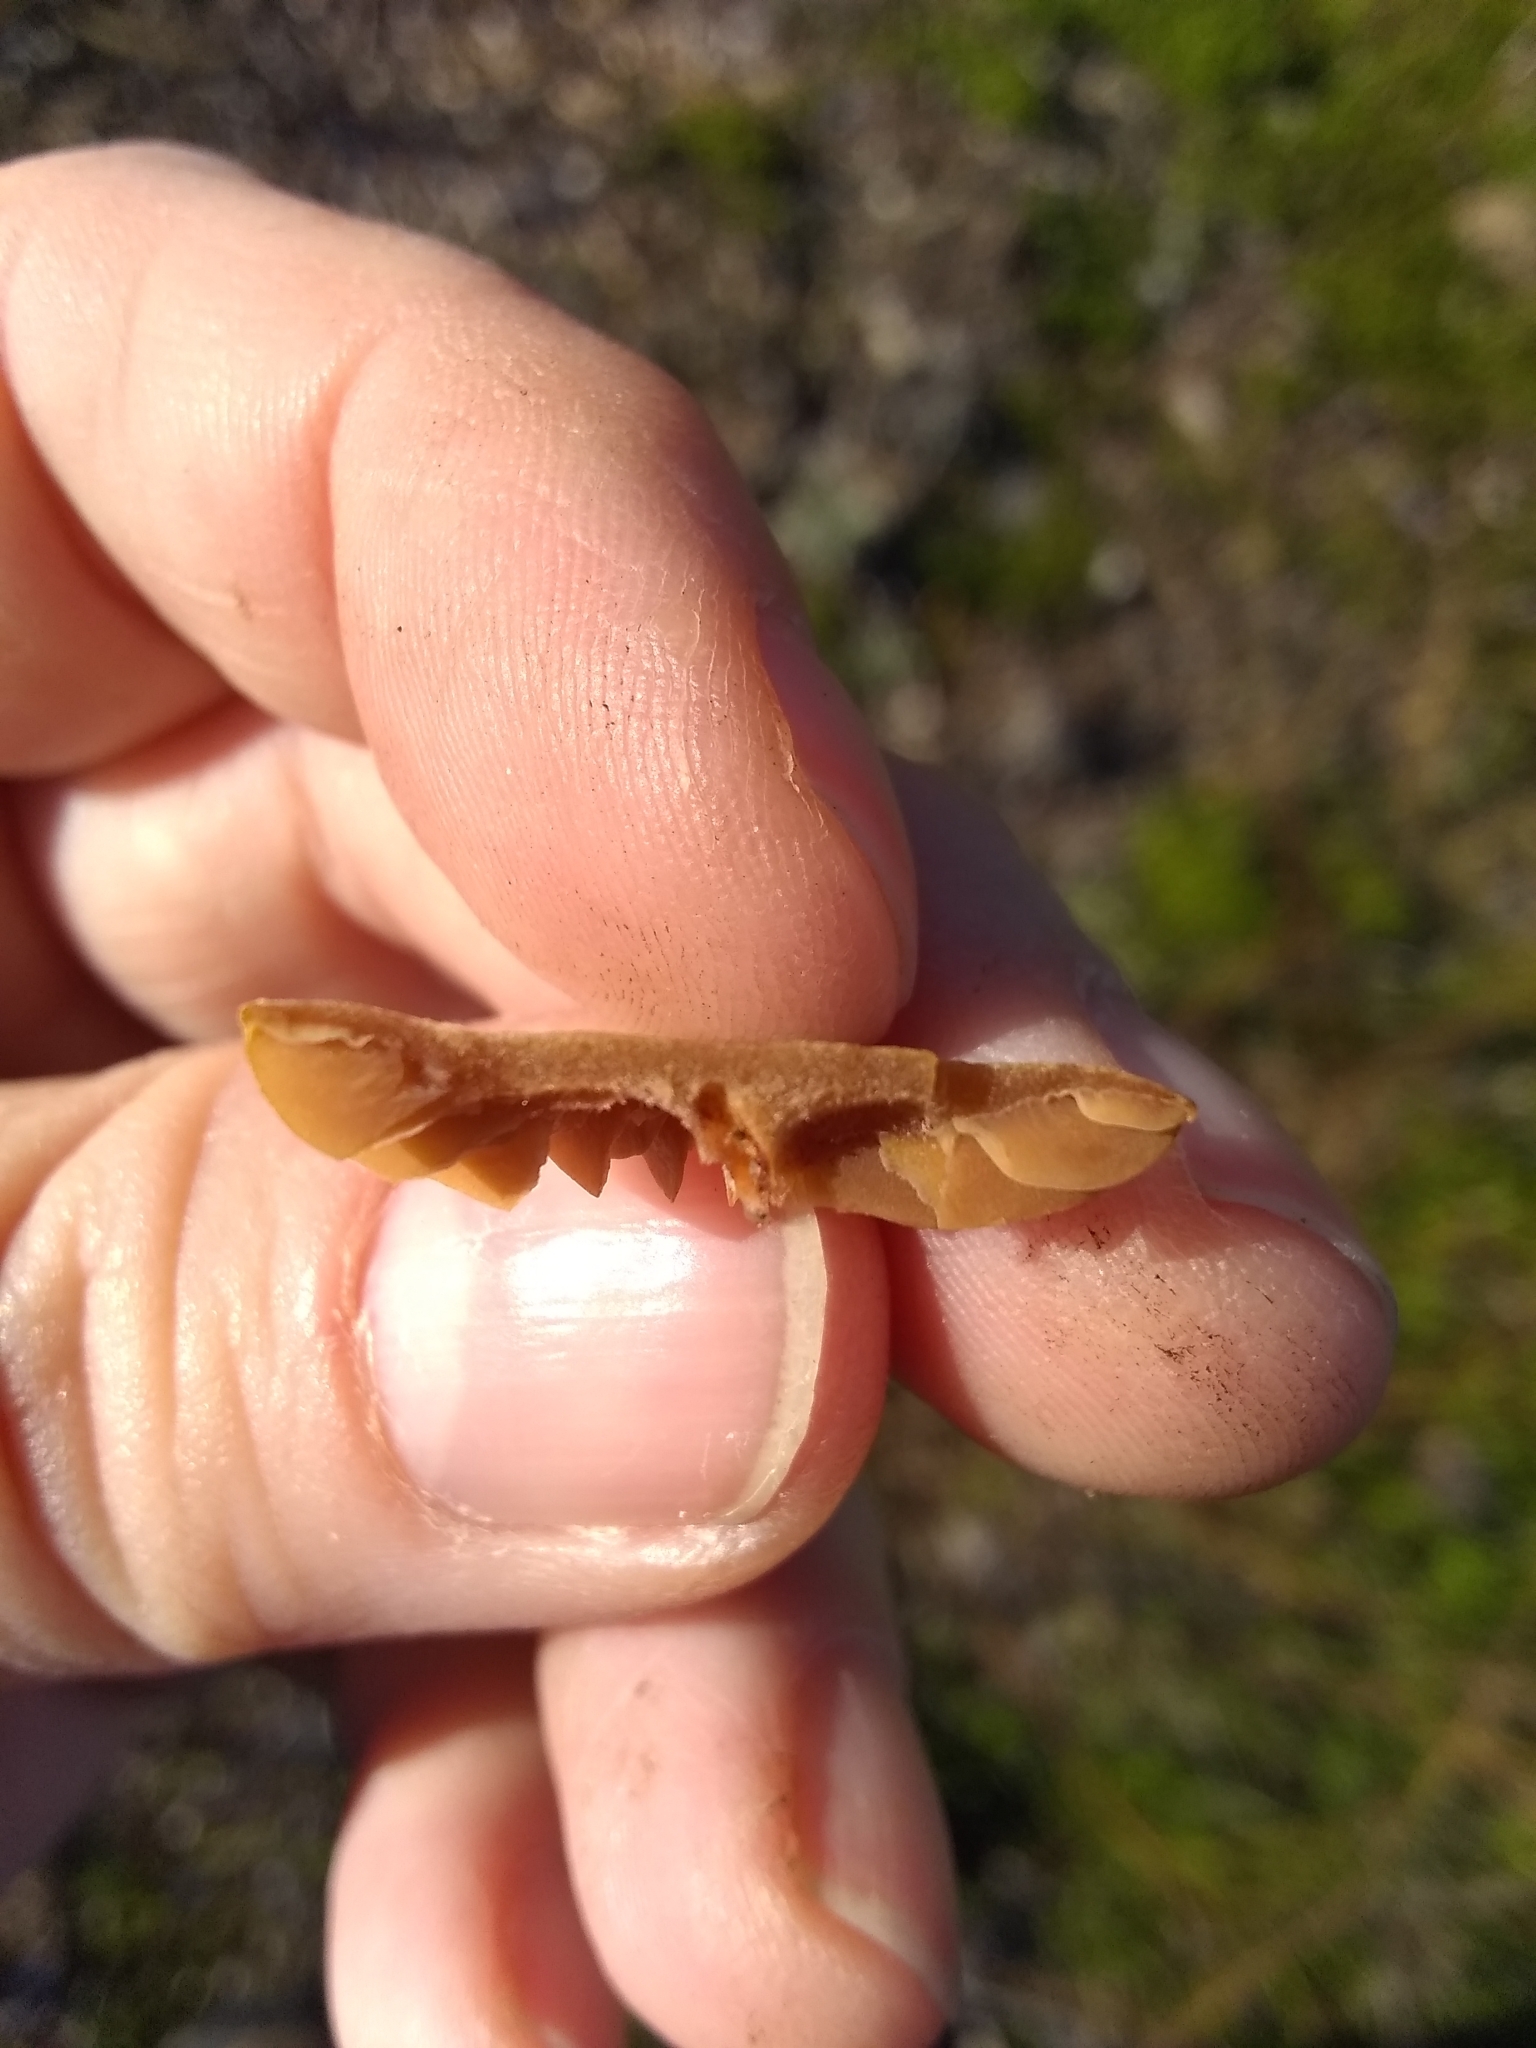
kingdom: Fungi
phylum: Basidiomycota
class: Agaricomycetes
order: Agaricales
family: Tubariaceae
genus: Tubaria
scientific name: Tubaria furfuracea
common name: Scurfy twiglet
